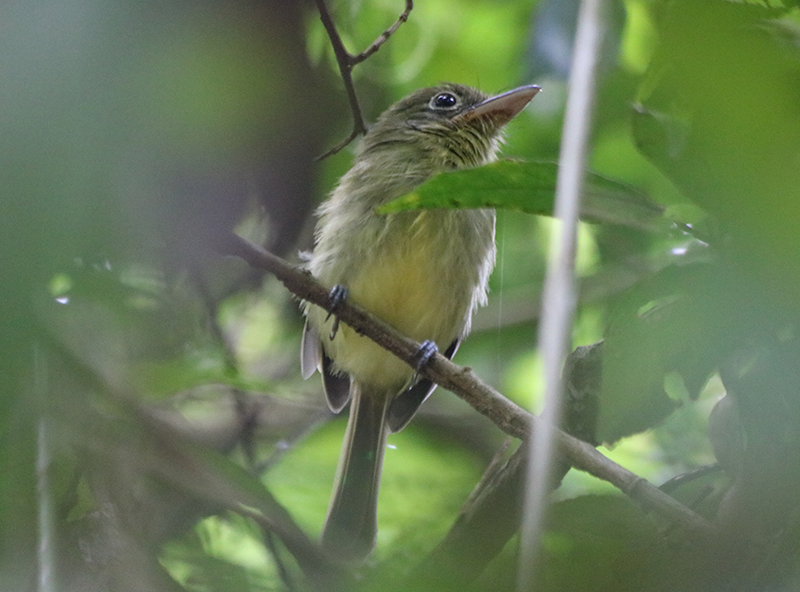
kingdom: Animalia
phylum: Chordata
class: Aves
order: Passeriformes
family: Tyrannidae
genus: Rhynchocyclus
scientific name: Rhynchocyclus olivaceus
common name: Olivaceous flatbill
